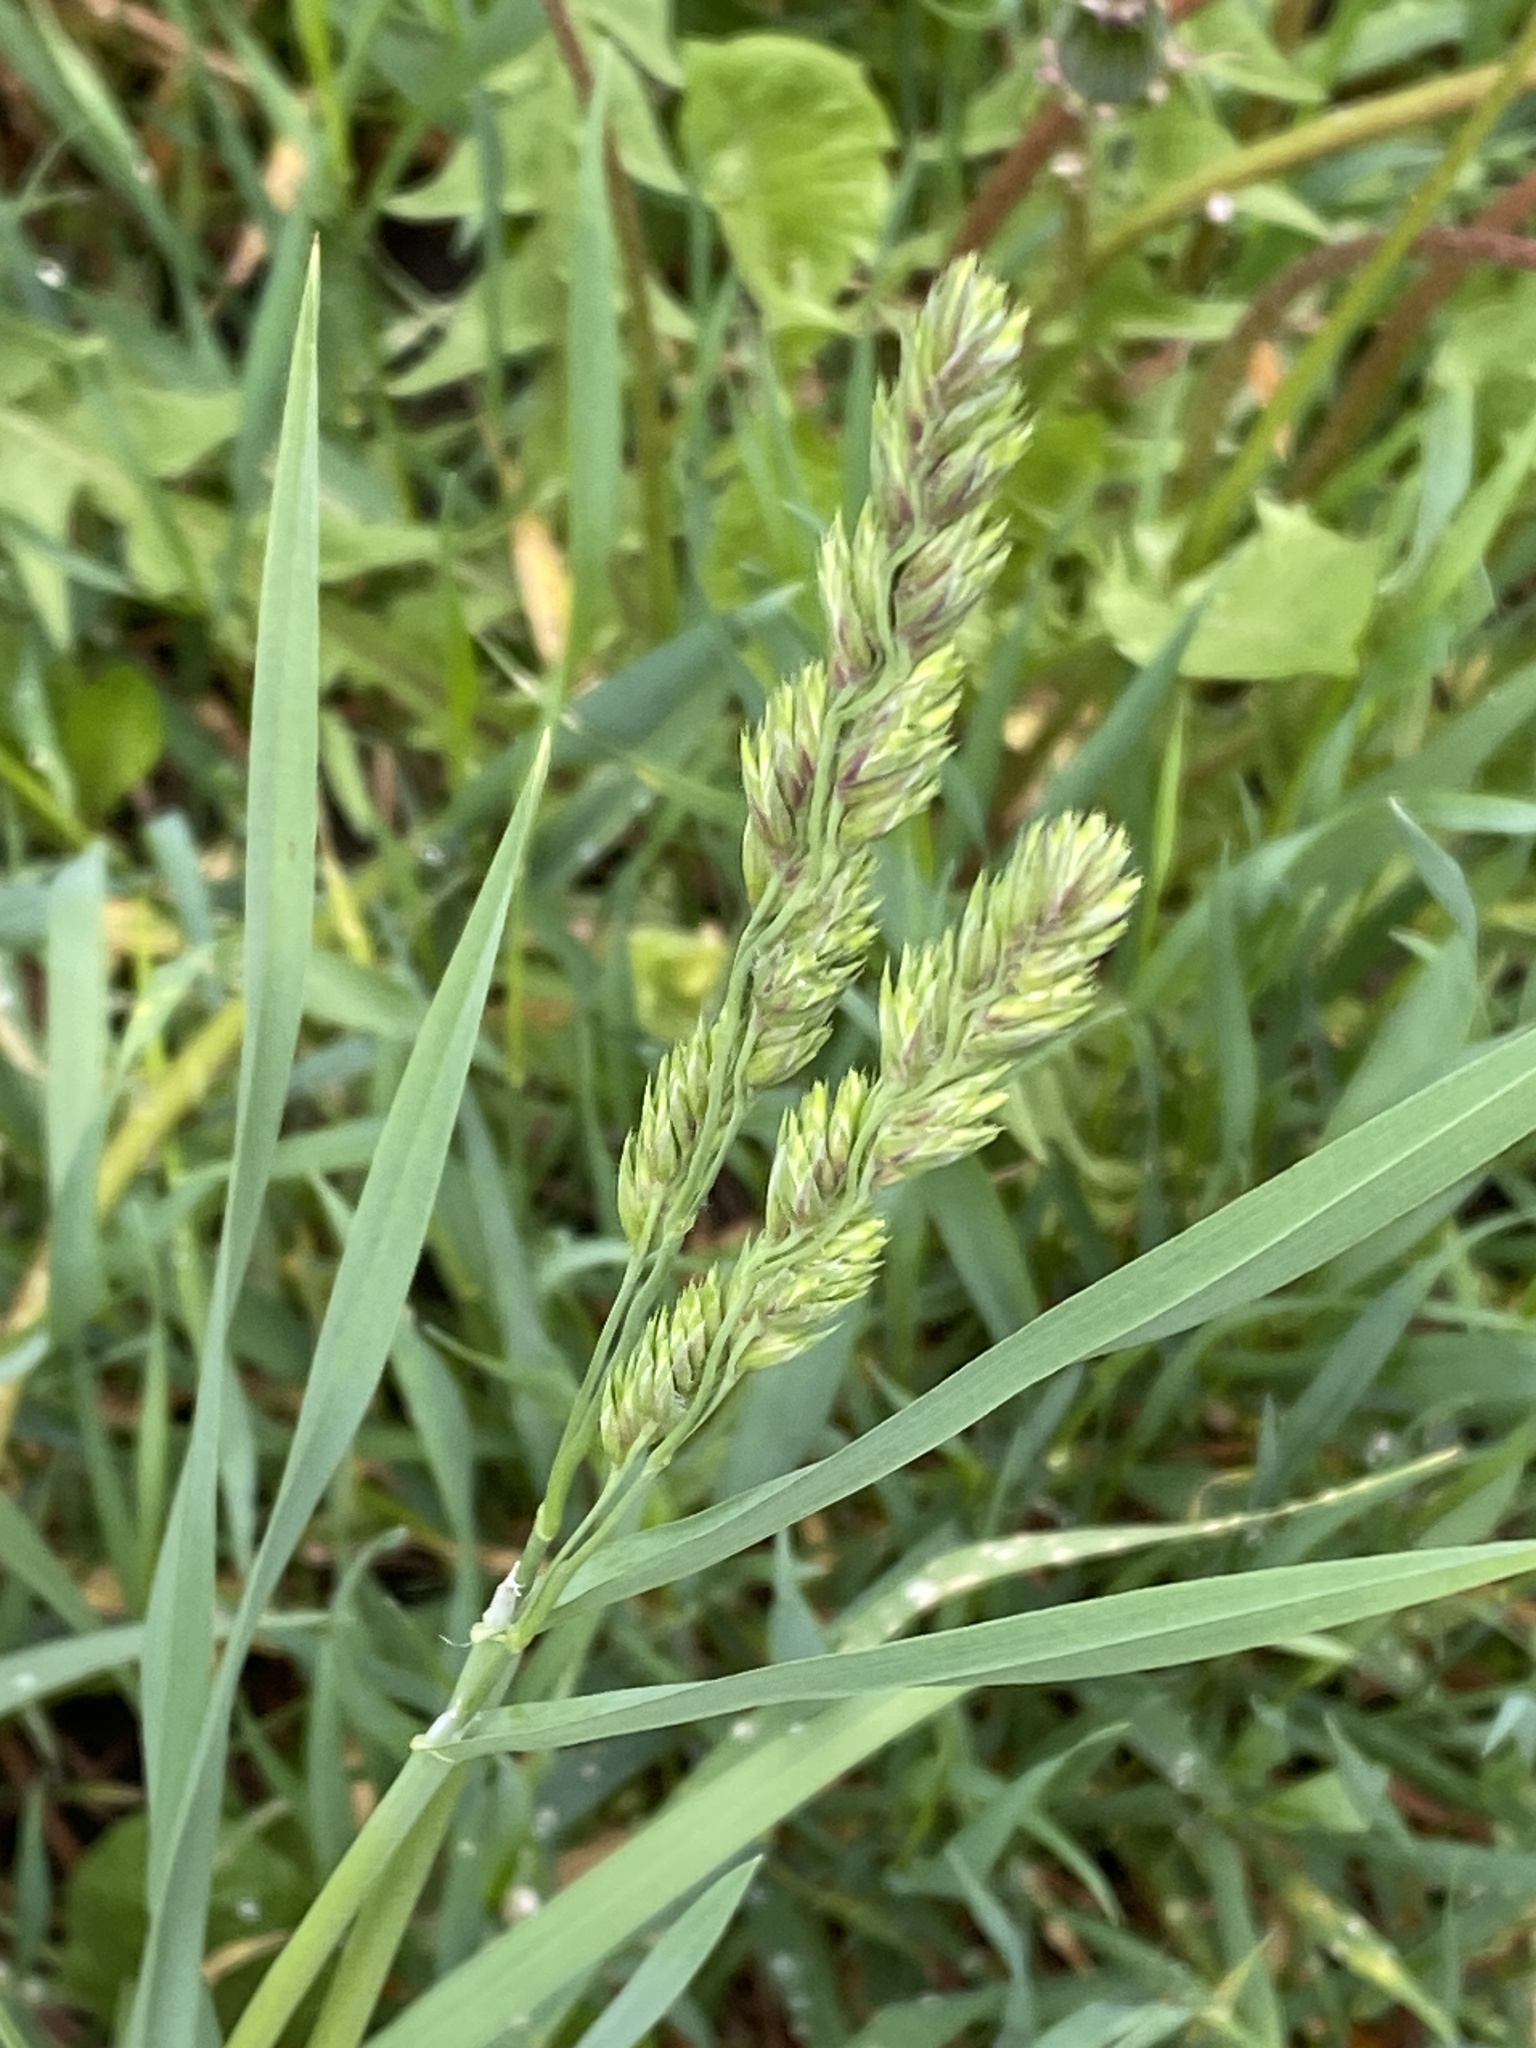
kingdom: Plantae
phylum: Tracheophyta
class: Liliopsida
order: Poales
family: Poaceae
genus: Dactylis
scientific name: Dactylis glomerata
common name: Orchardgrass
